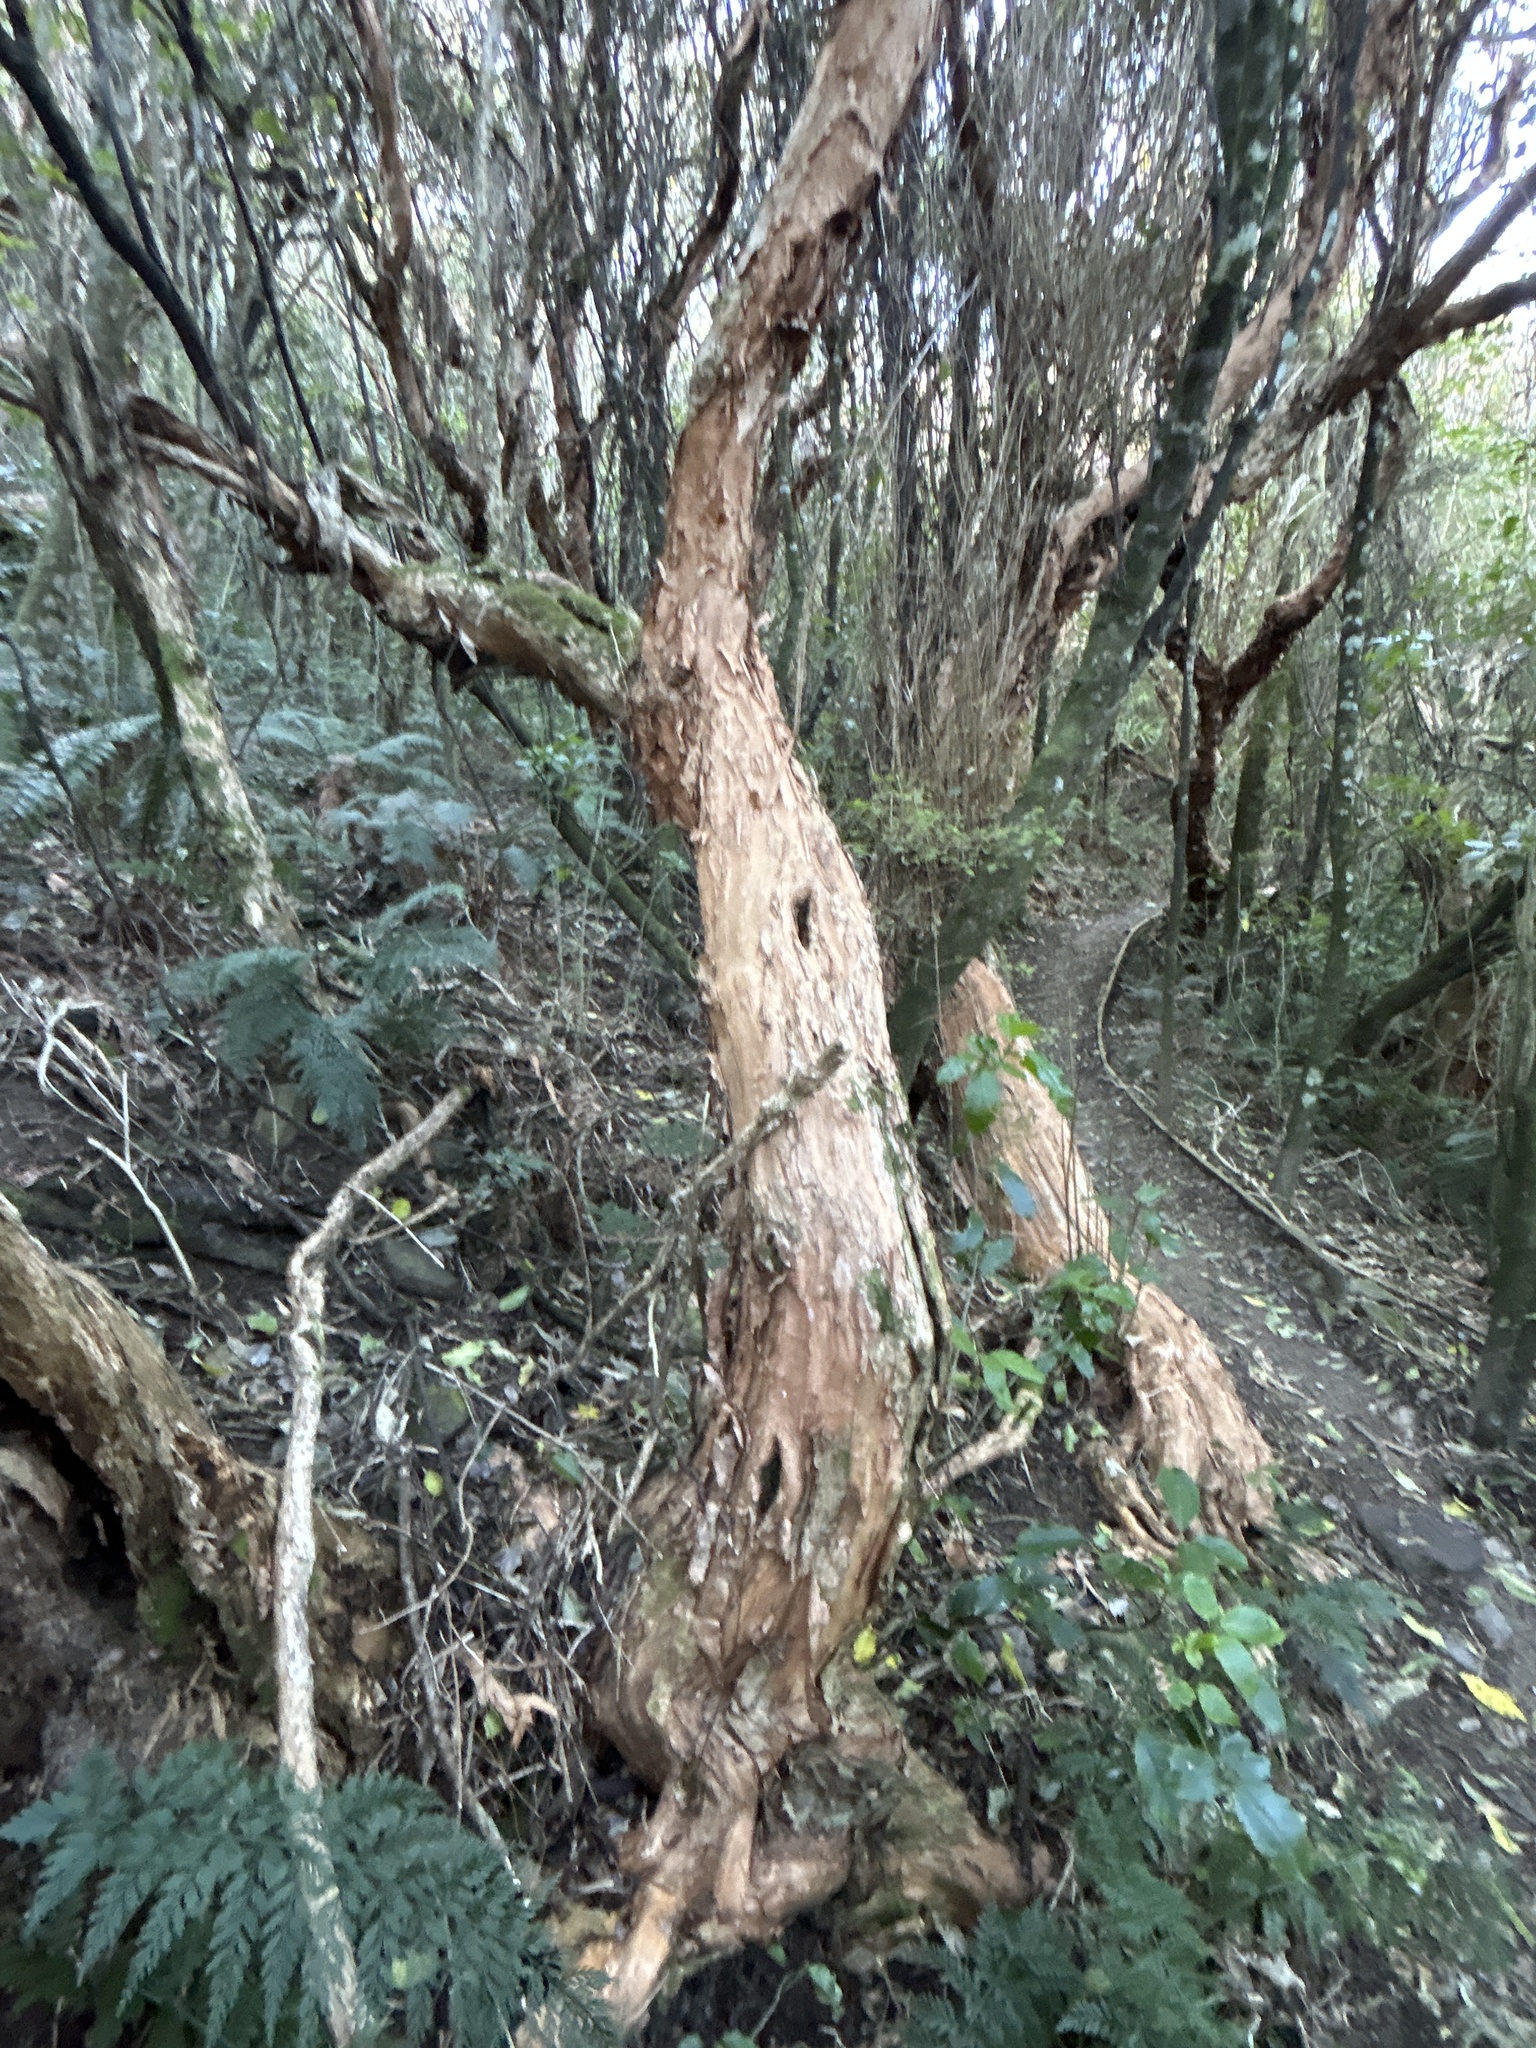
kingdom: Plantae
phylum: Tracheophyta
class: Magnoliopsida
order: Myrtales
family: Onagraceae
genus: Fuchsia
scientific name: Fuchsia excorticata
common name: Tree fuchsia
